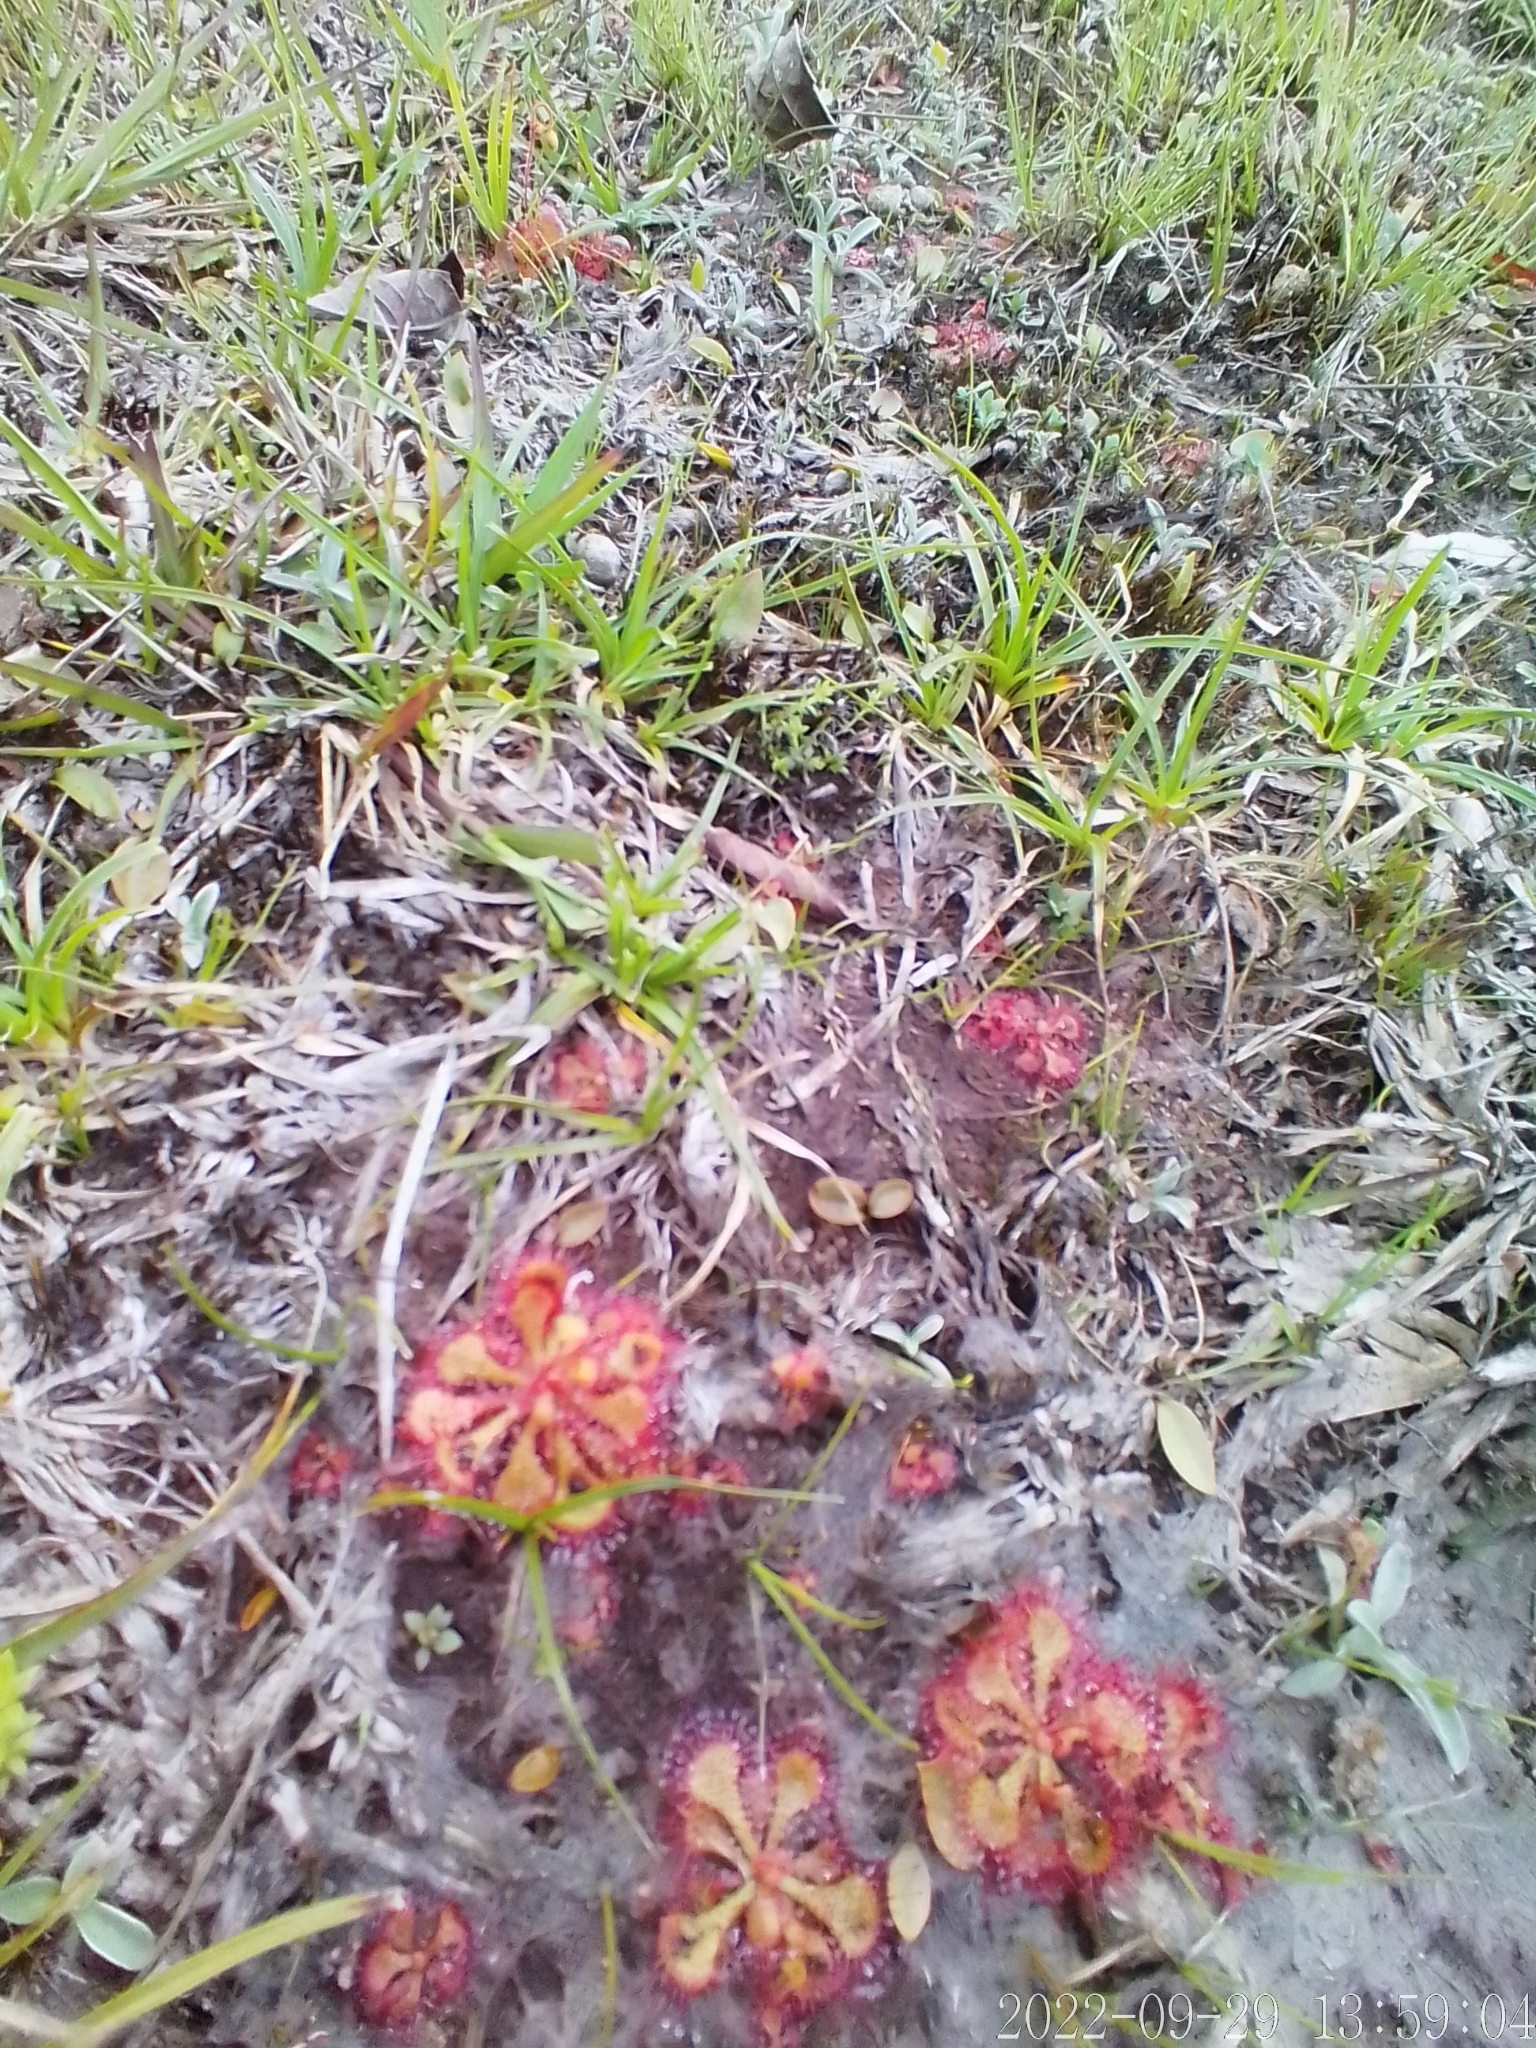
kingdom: Plantae
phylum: Tracheophyta
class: Magnoliopsida
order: Caryophyllales
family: Droseraceae
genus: Drosera
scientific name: Drosera brevifolia
